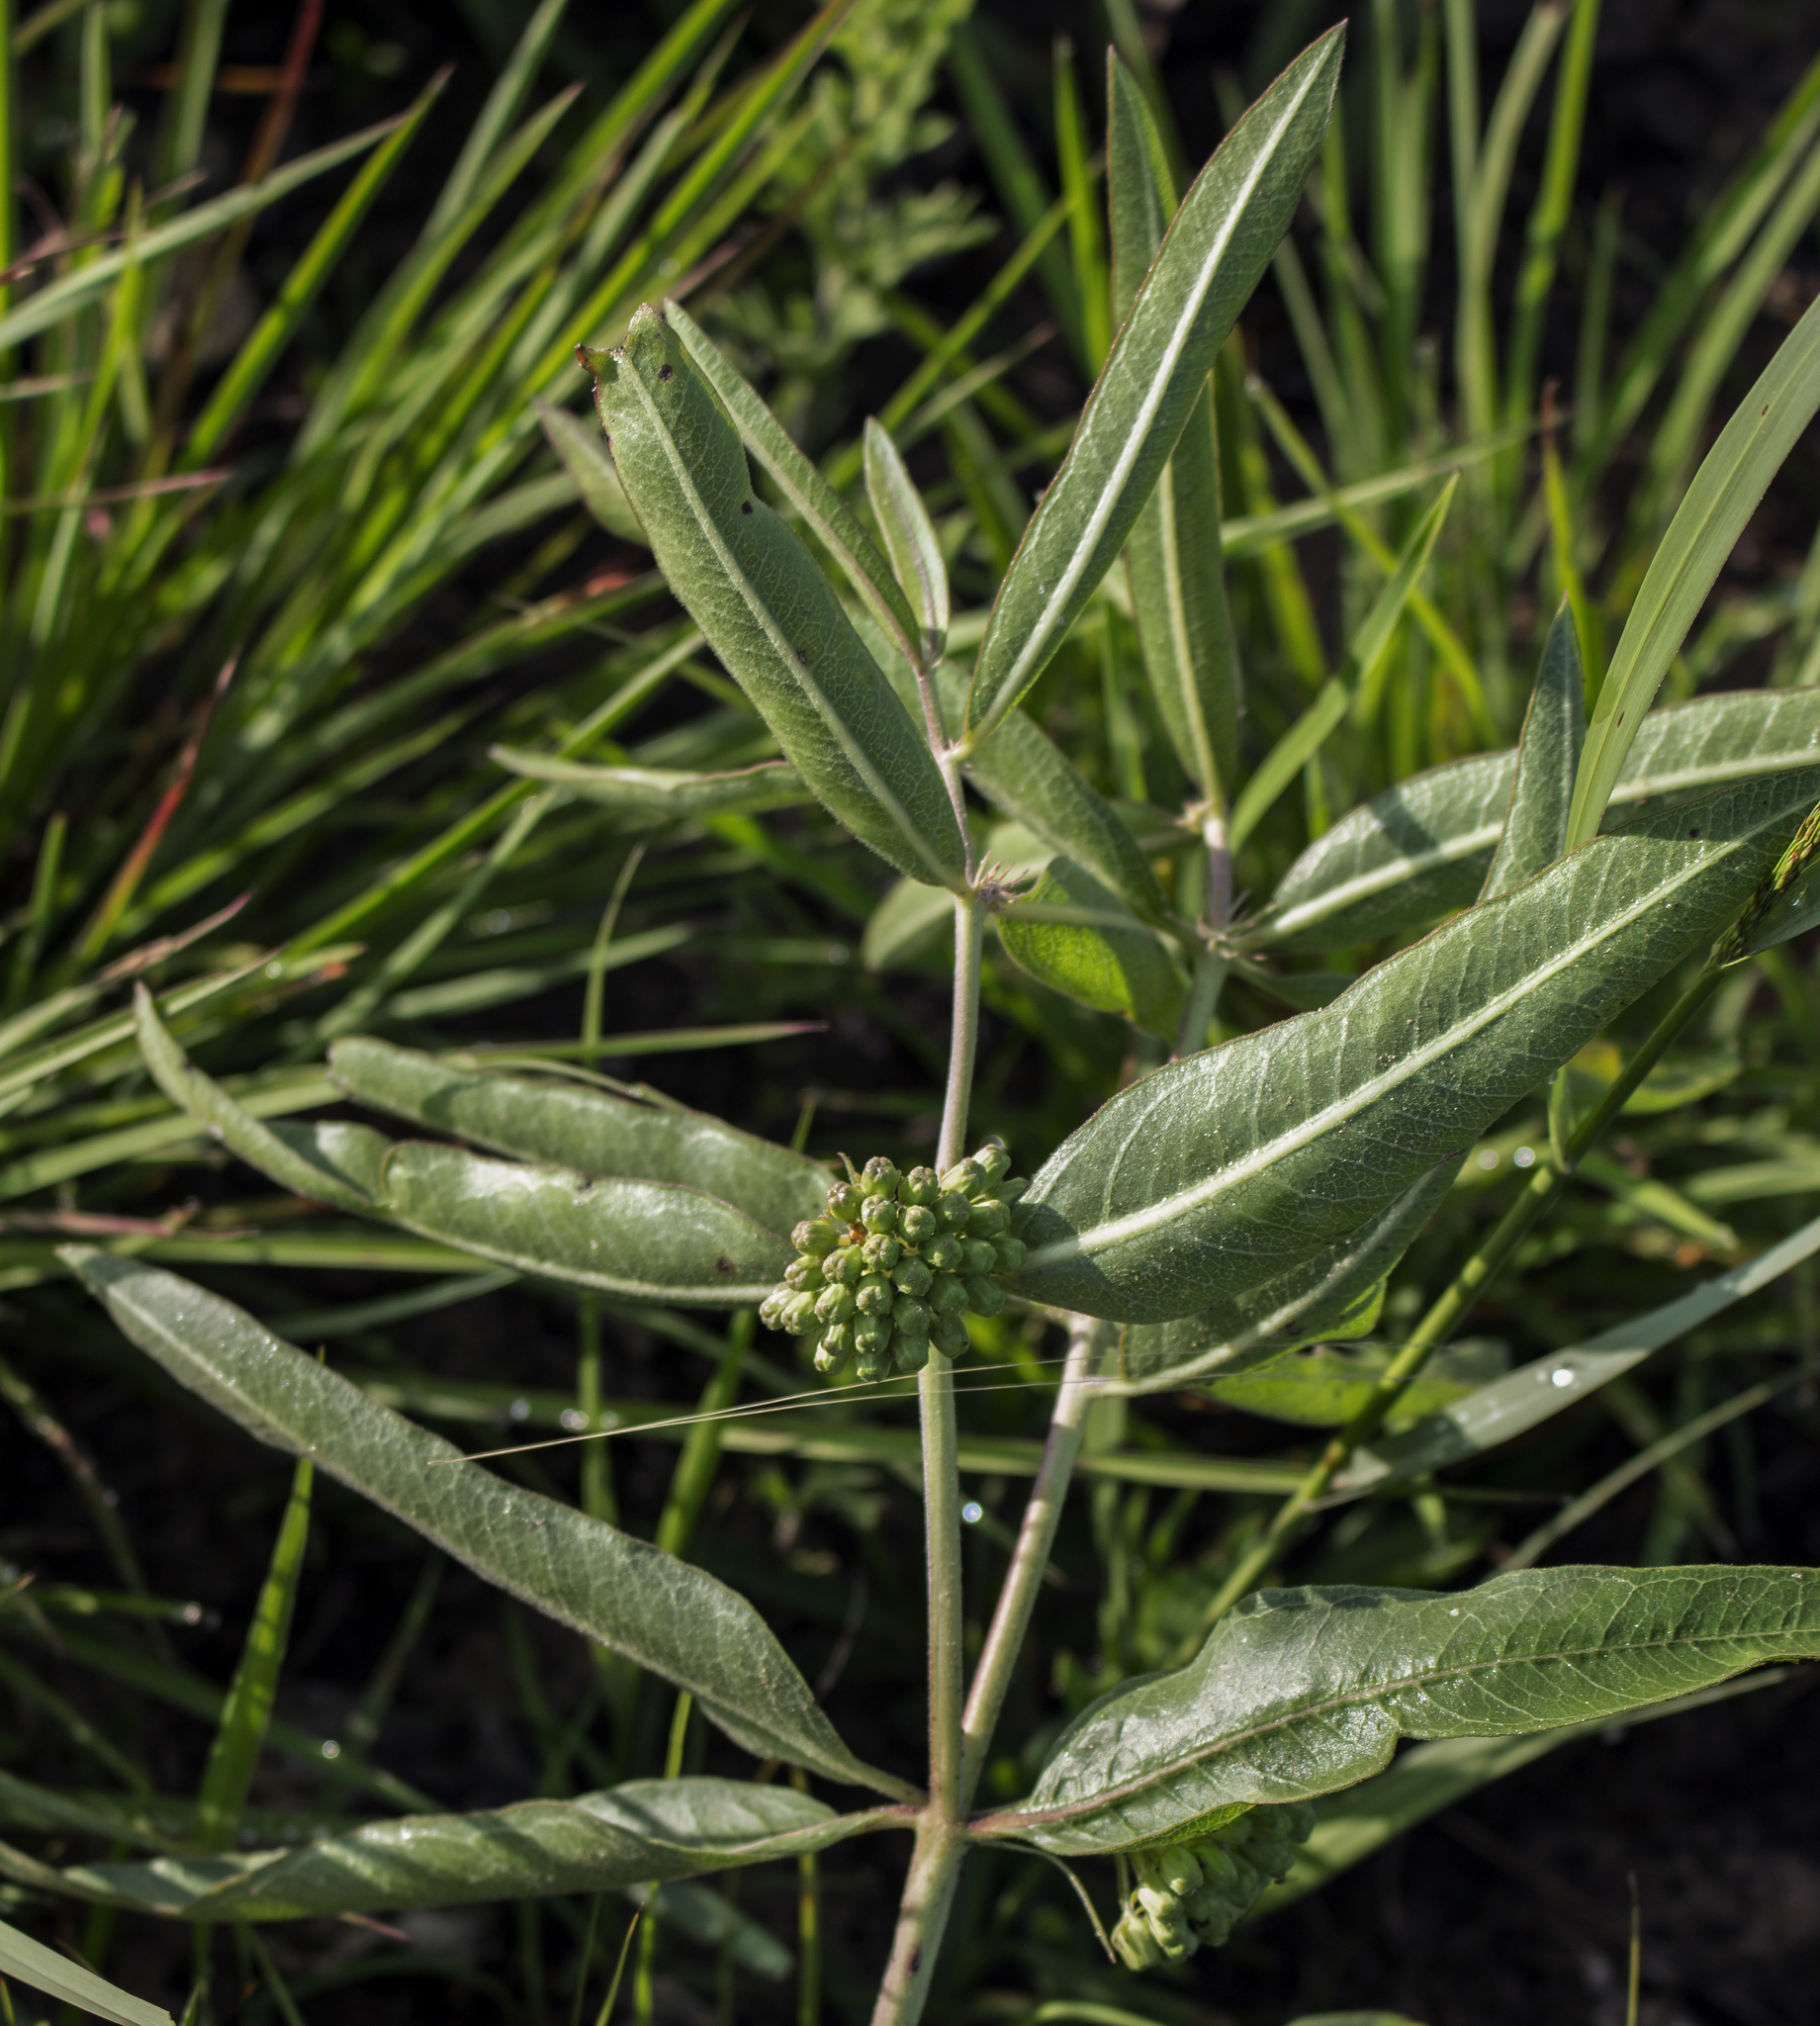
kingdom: Plantae
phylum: Tracheophyta
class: Magnoliopsida
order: Gentianales
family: Apocynaceae
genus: Asclepias
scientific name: Asclepias viridiflora
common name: Green comet milkweed
